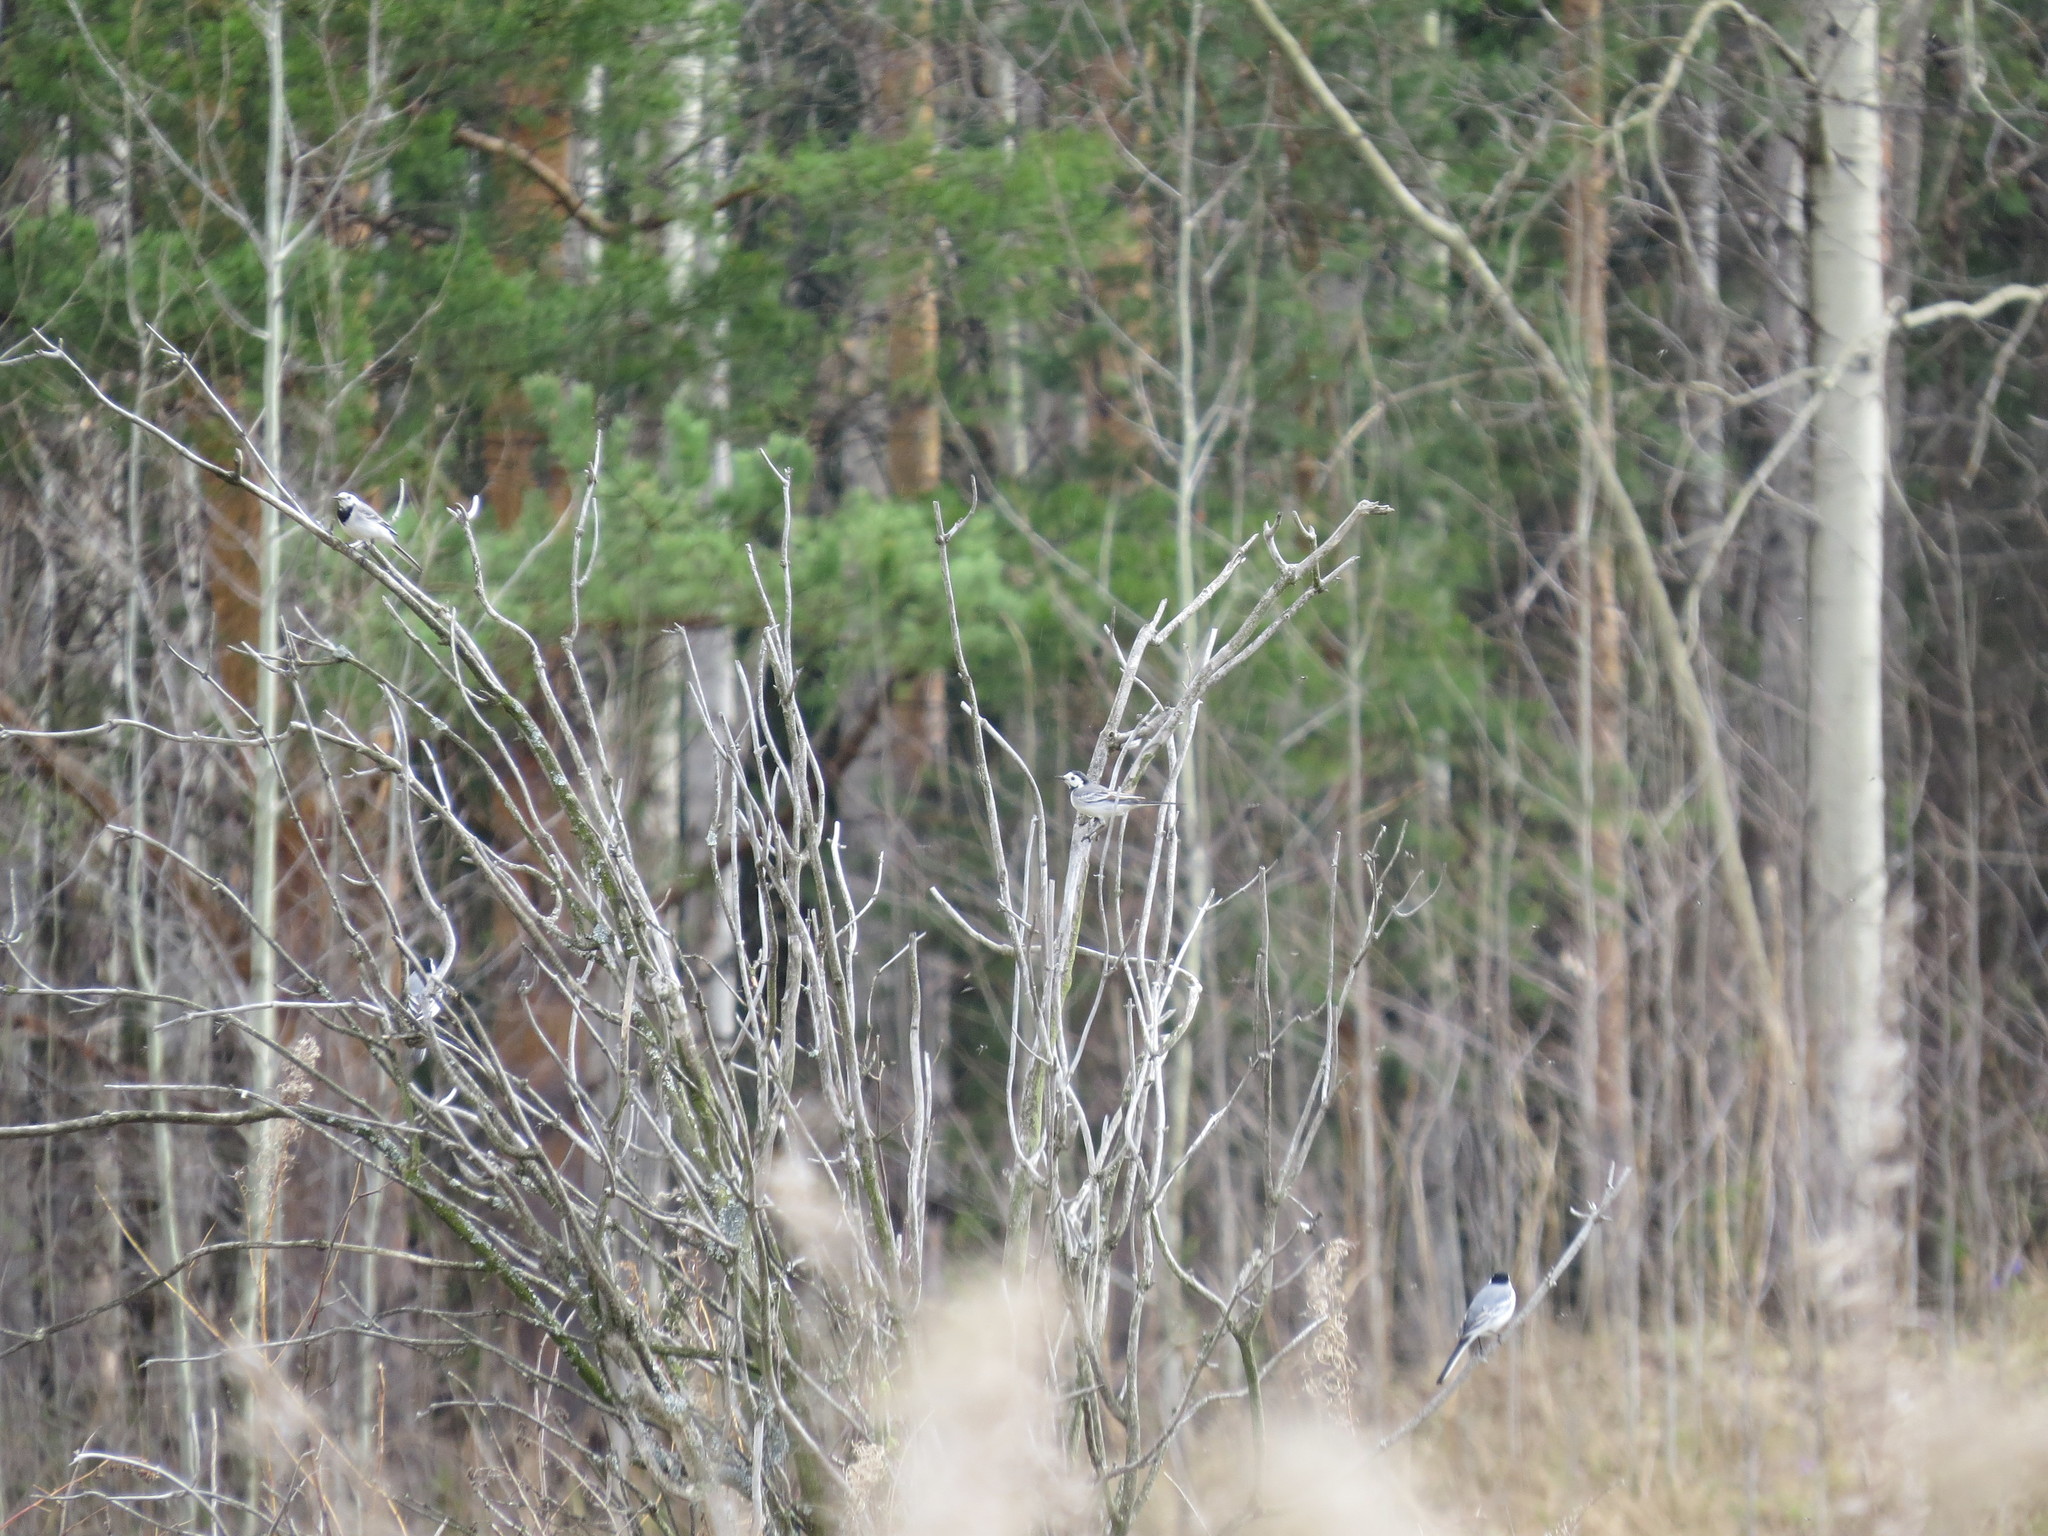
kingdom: Animalia
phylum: Chordata
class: Aves
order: Passeriformes
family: Motacillidae
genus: Motacilla
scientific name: Motacilla alba
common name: White wagtail
